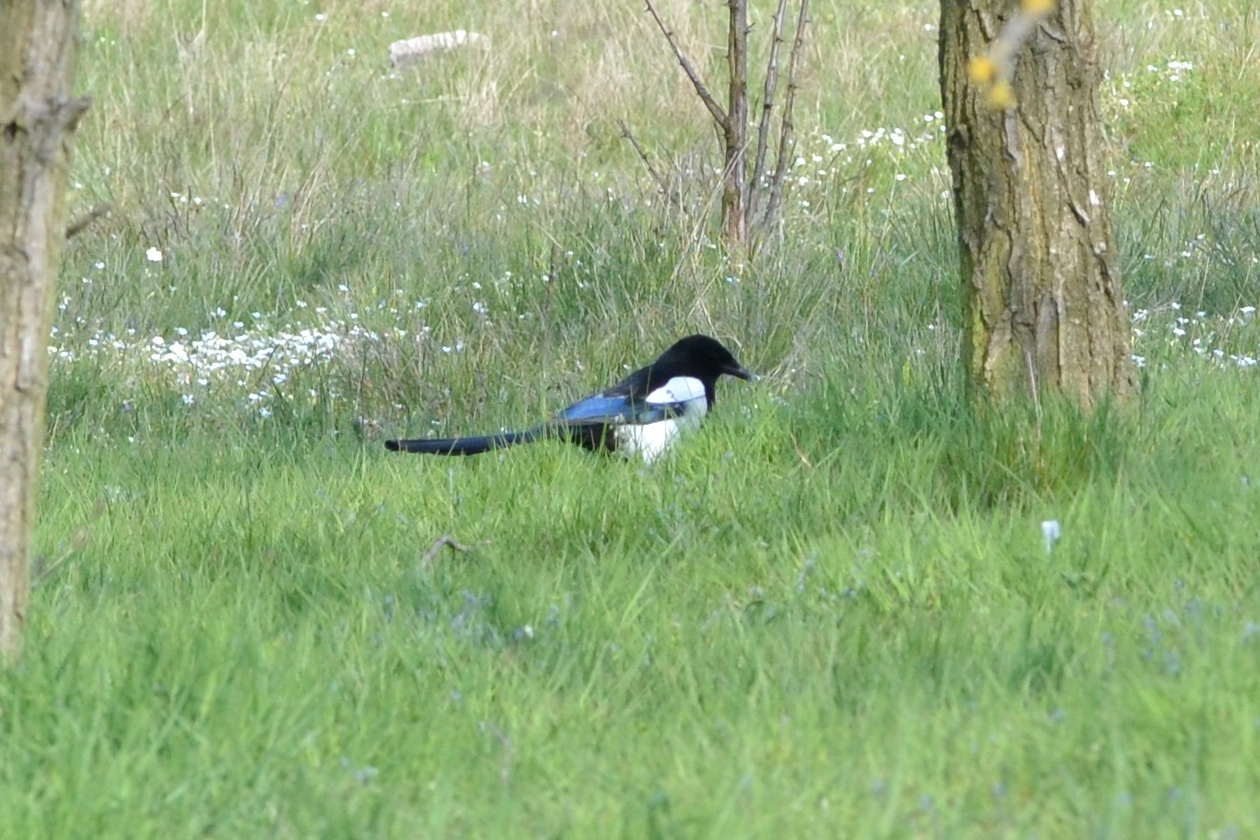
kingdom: Animalia
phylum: Chordata
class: Aves
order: Passeriformes
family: Corvidae
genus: Pica
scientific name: Pica pica
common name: Eurasian magpie
